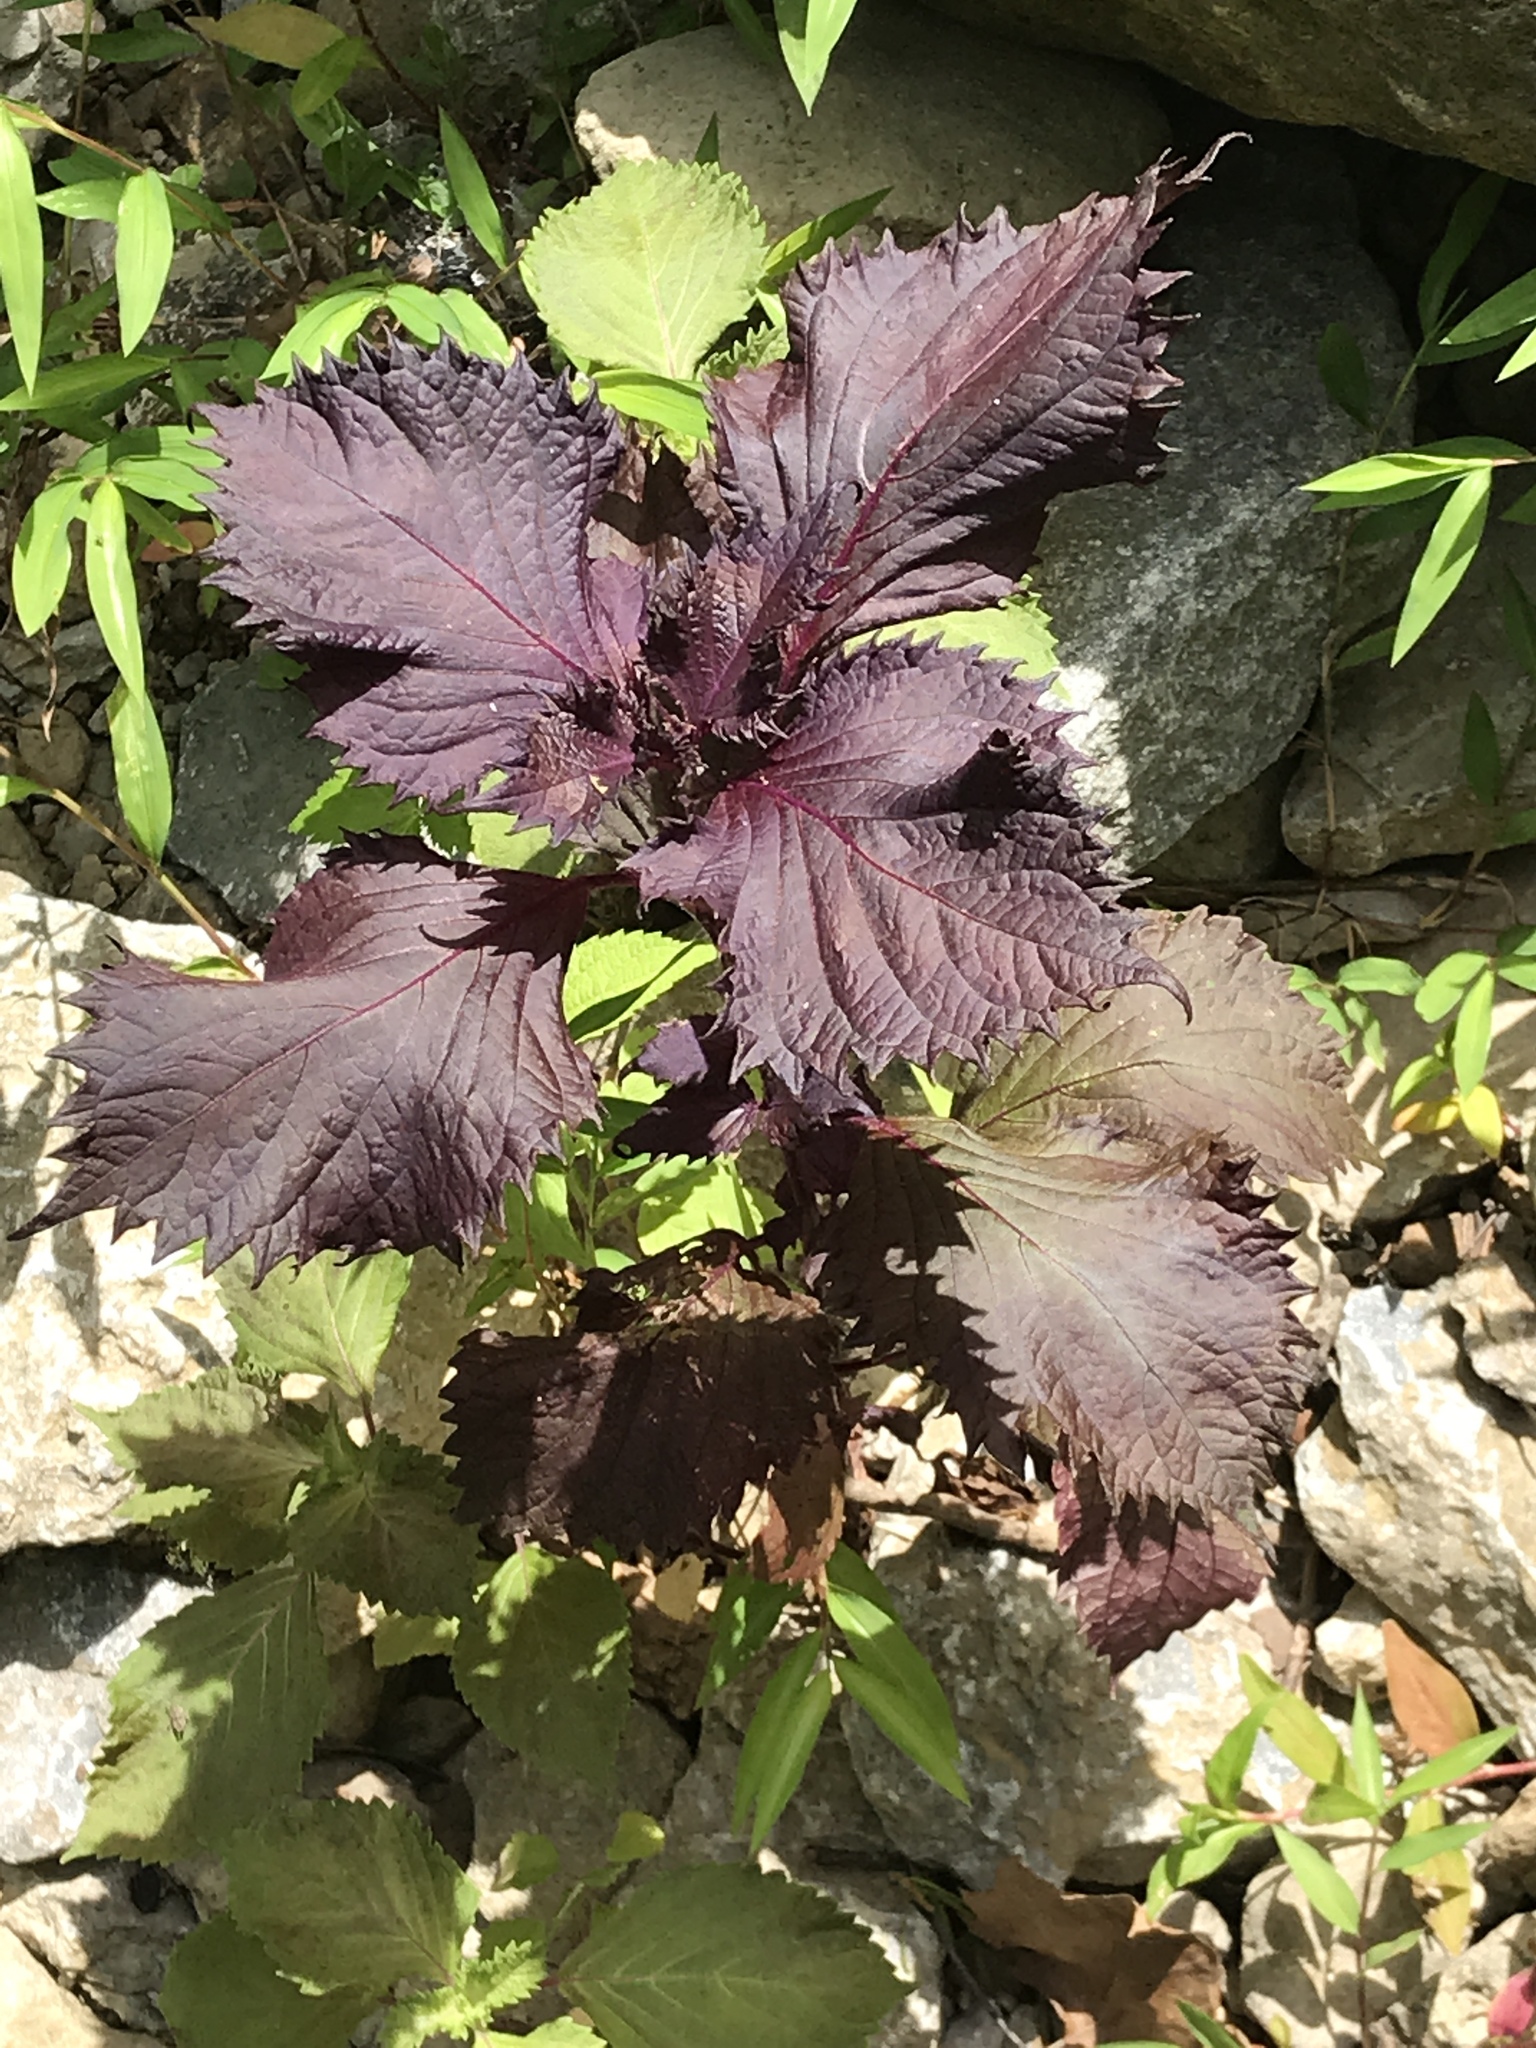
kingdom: Plantae
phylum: Tracheophyta
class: Magnoliopsida
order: Lamiales
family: Lamiaceae
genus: Perilla
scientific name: Perilla frutescens
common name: Perilla
